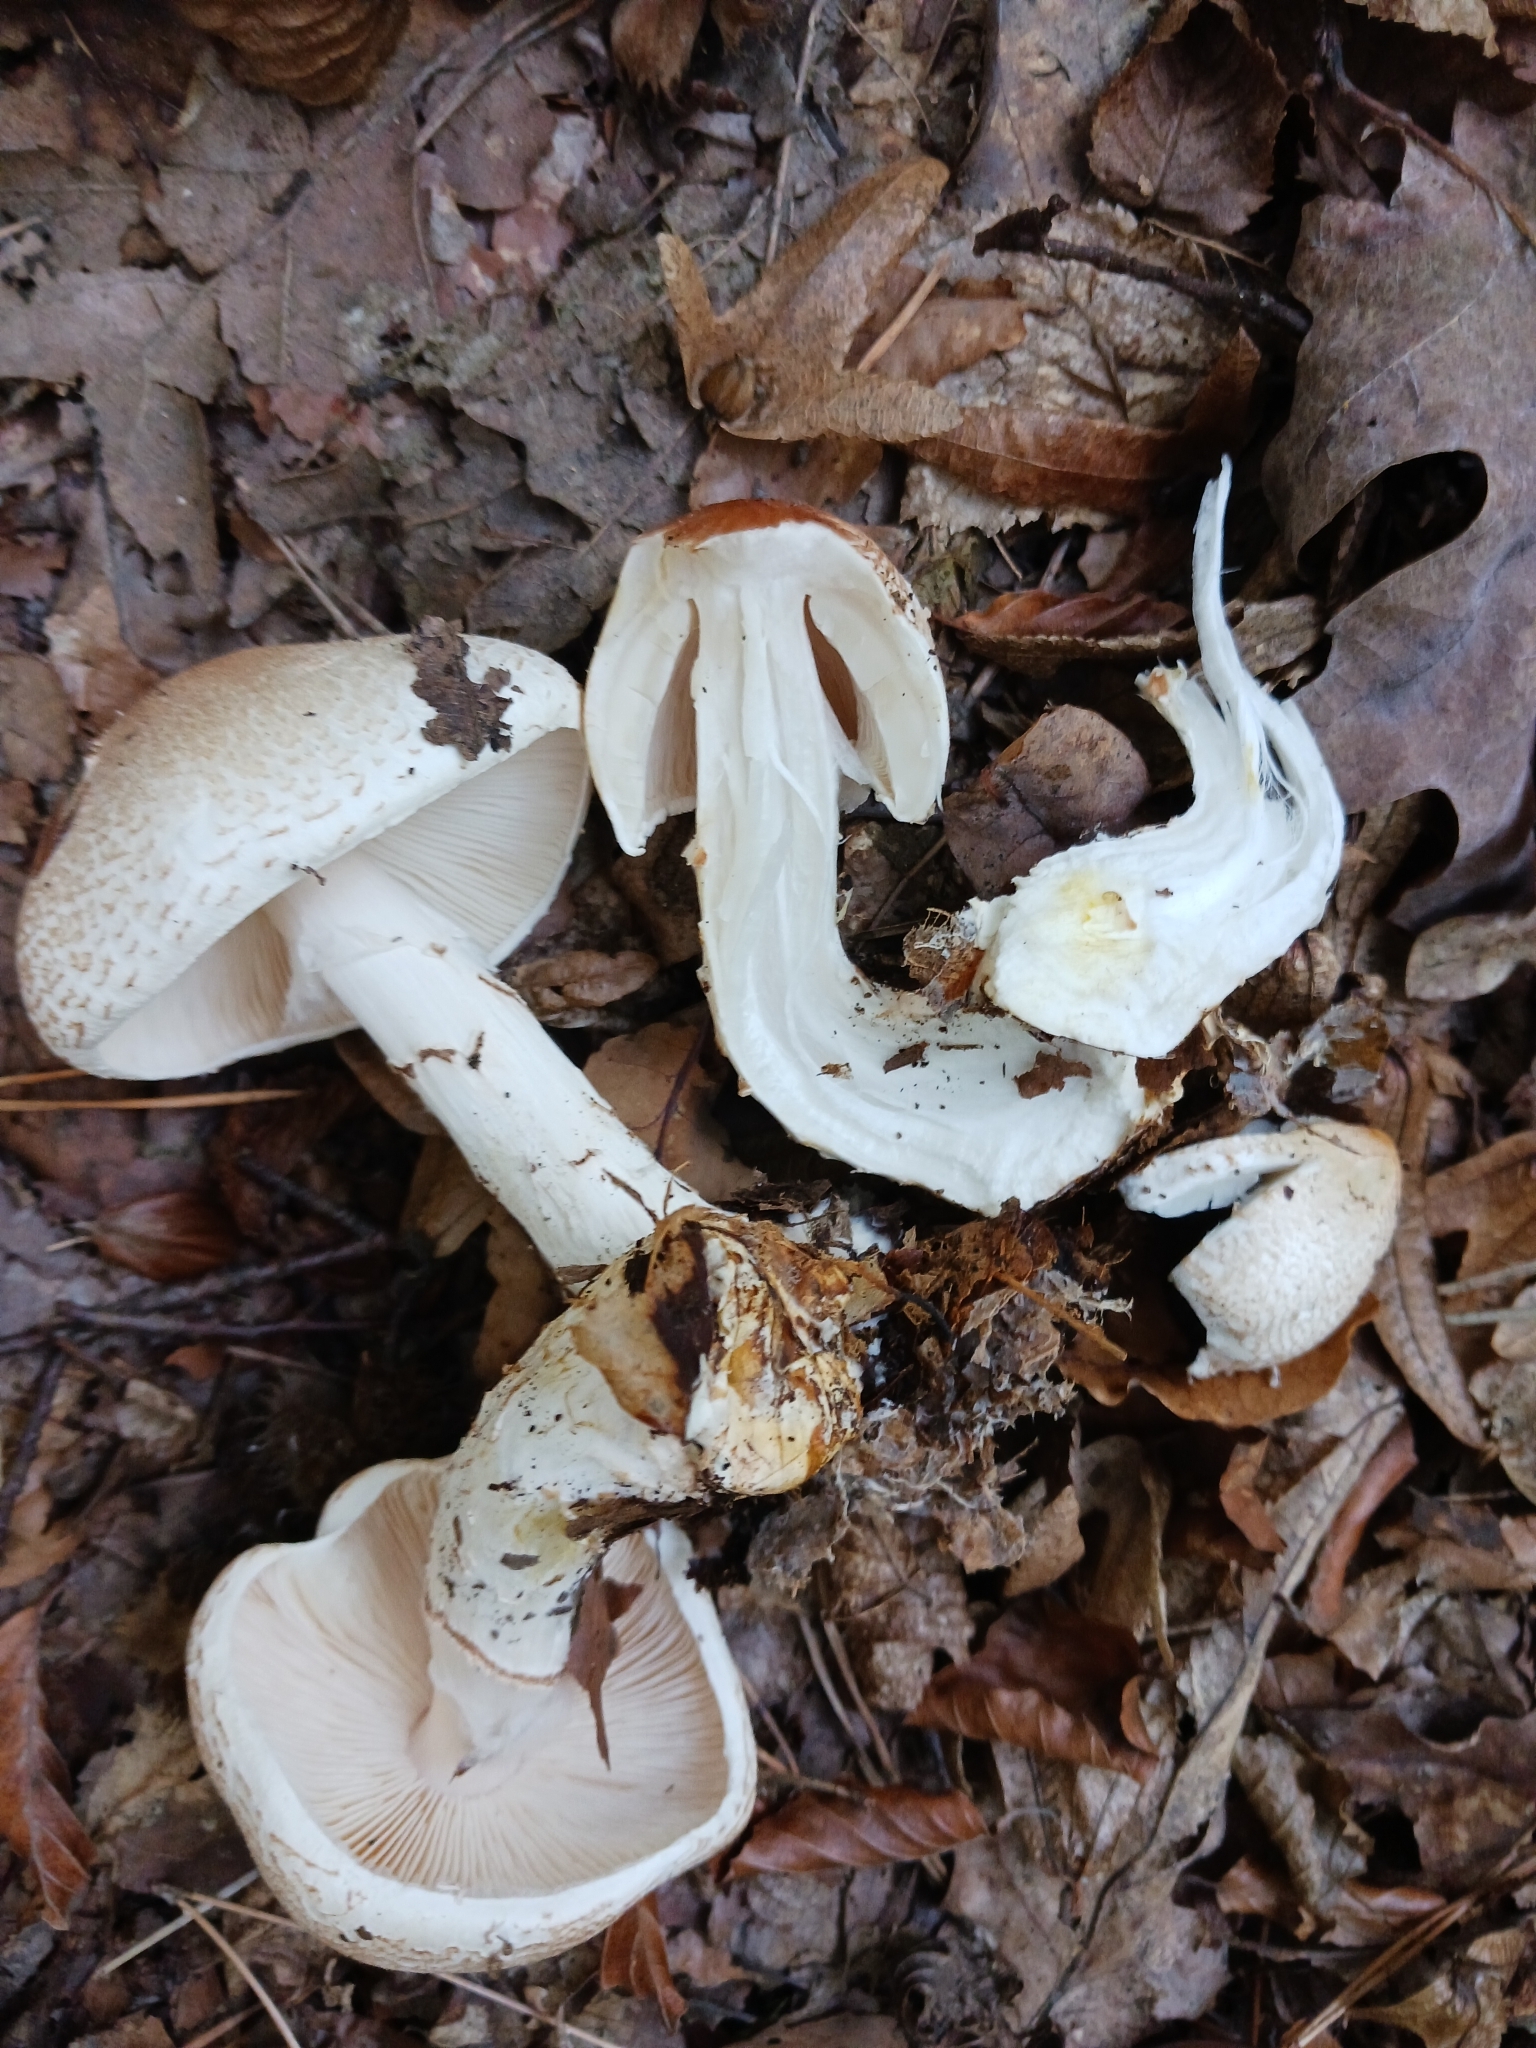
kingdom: Fungi
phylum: Basidiomycota
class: Agaricomycetes
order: Agaricales
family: Agaricaceae
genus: Lepiota
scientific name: Lepiota ignivolvata
